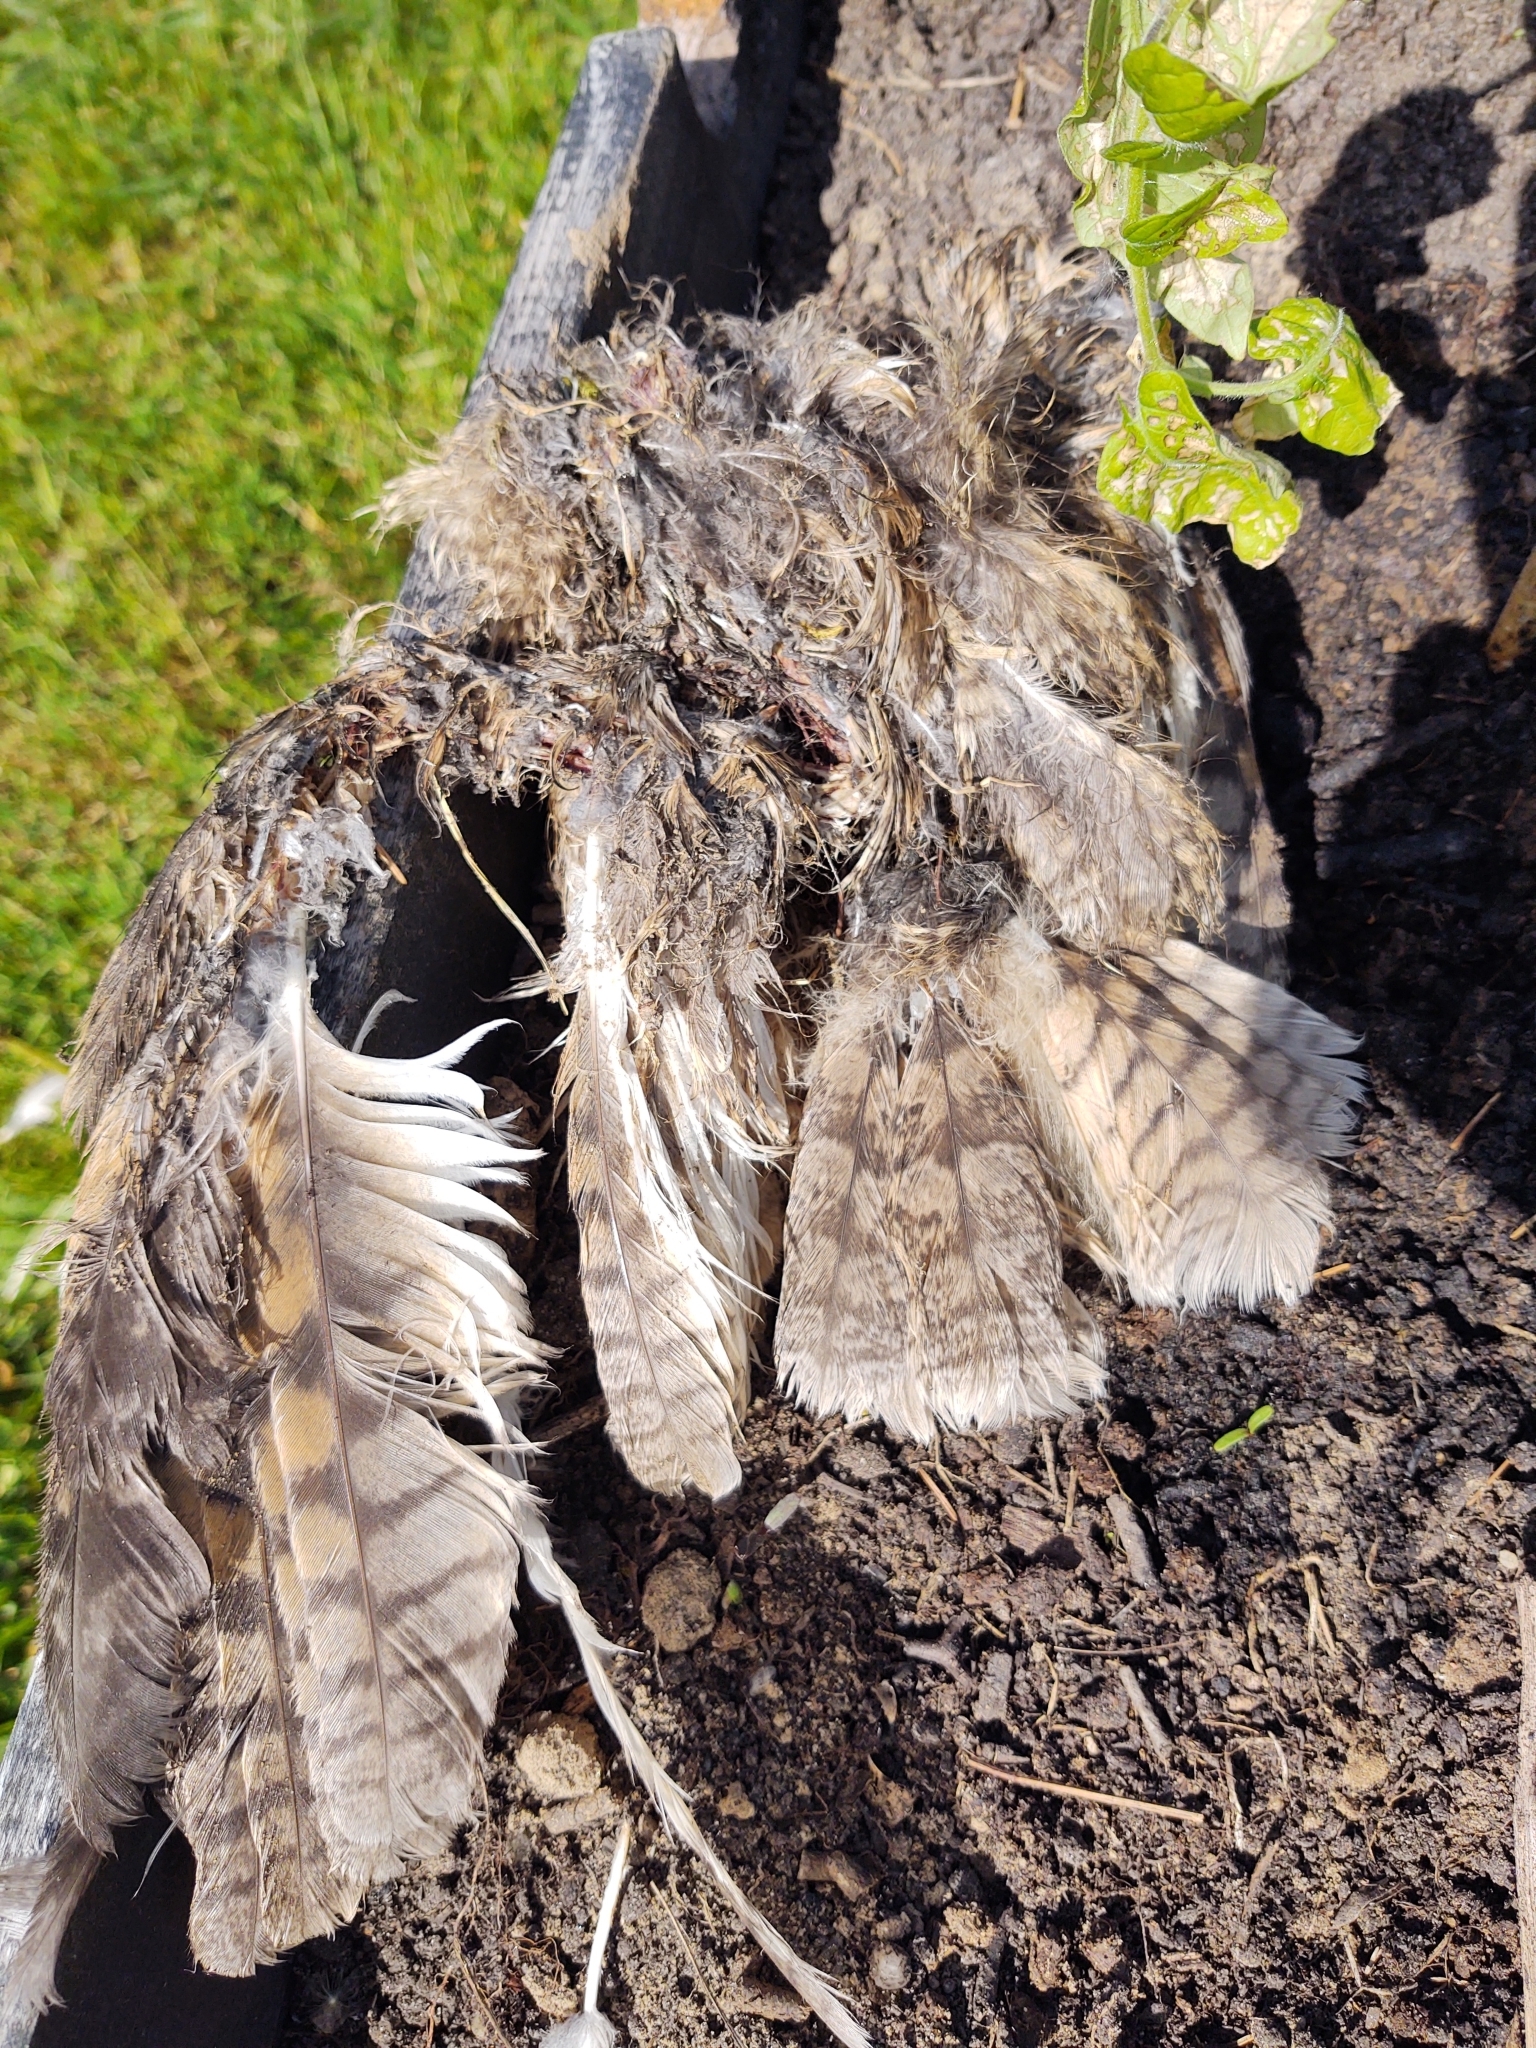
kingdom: Animalia
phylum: Chordata
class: Aves
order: Strigiformes
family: Strigidae
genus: Asio
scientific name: Asio otus
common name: Long-eared owl
